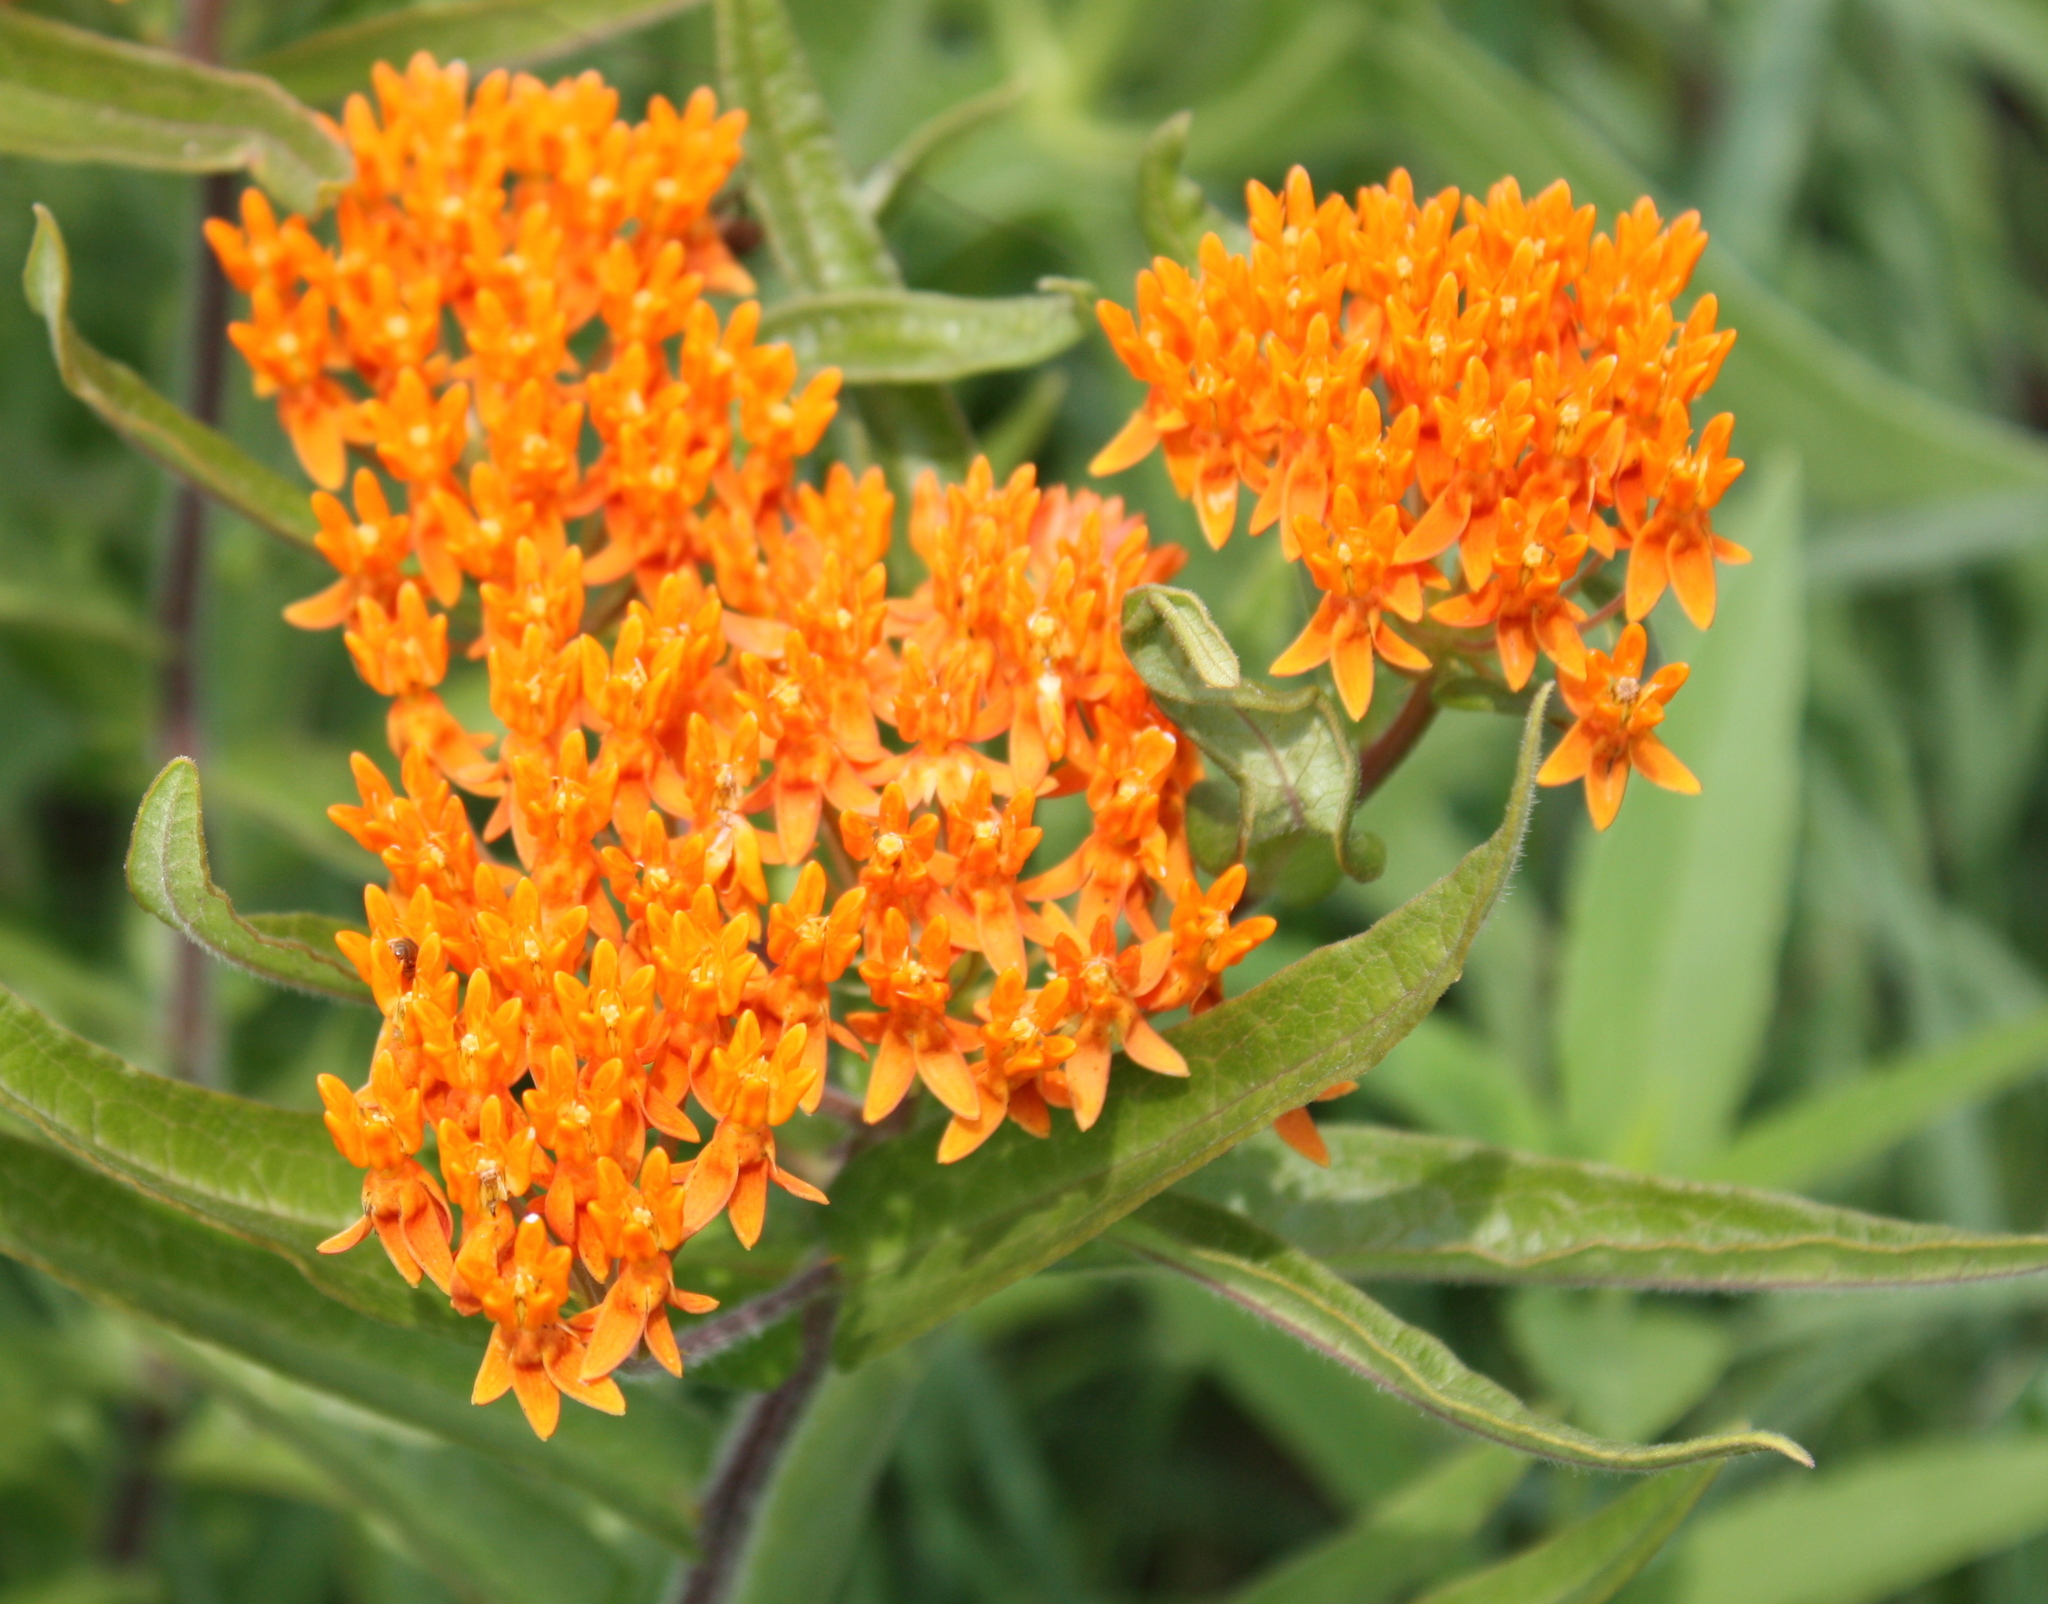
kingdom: Plantae
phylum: Tracheophyta
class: Magnoliopsida
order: Gentianales
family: Apocynaceae
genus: Asclepias
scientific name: Asclepias tuberosa
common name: Butterfly milkweed
